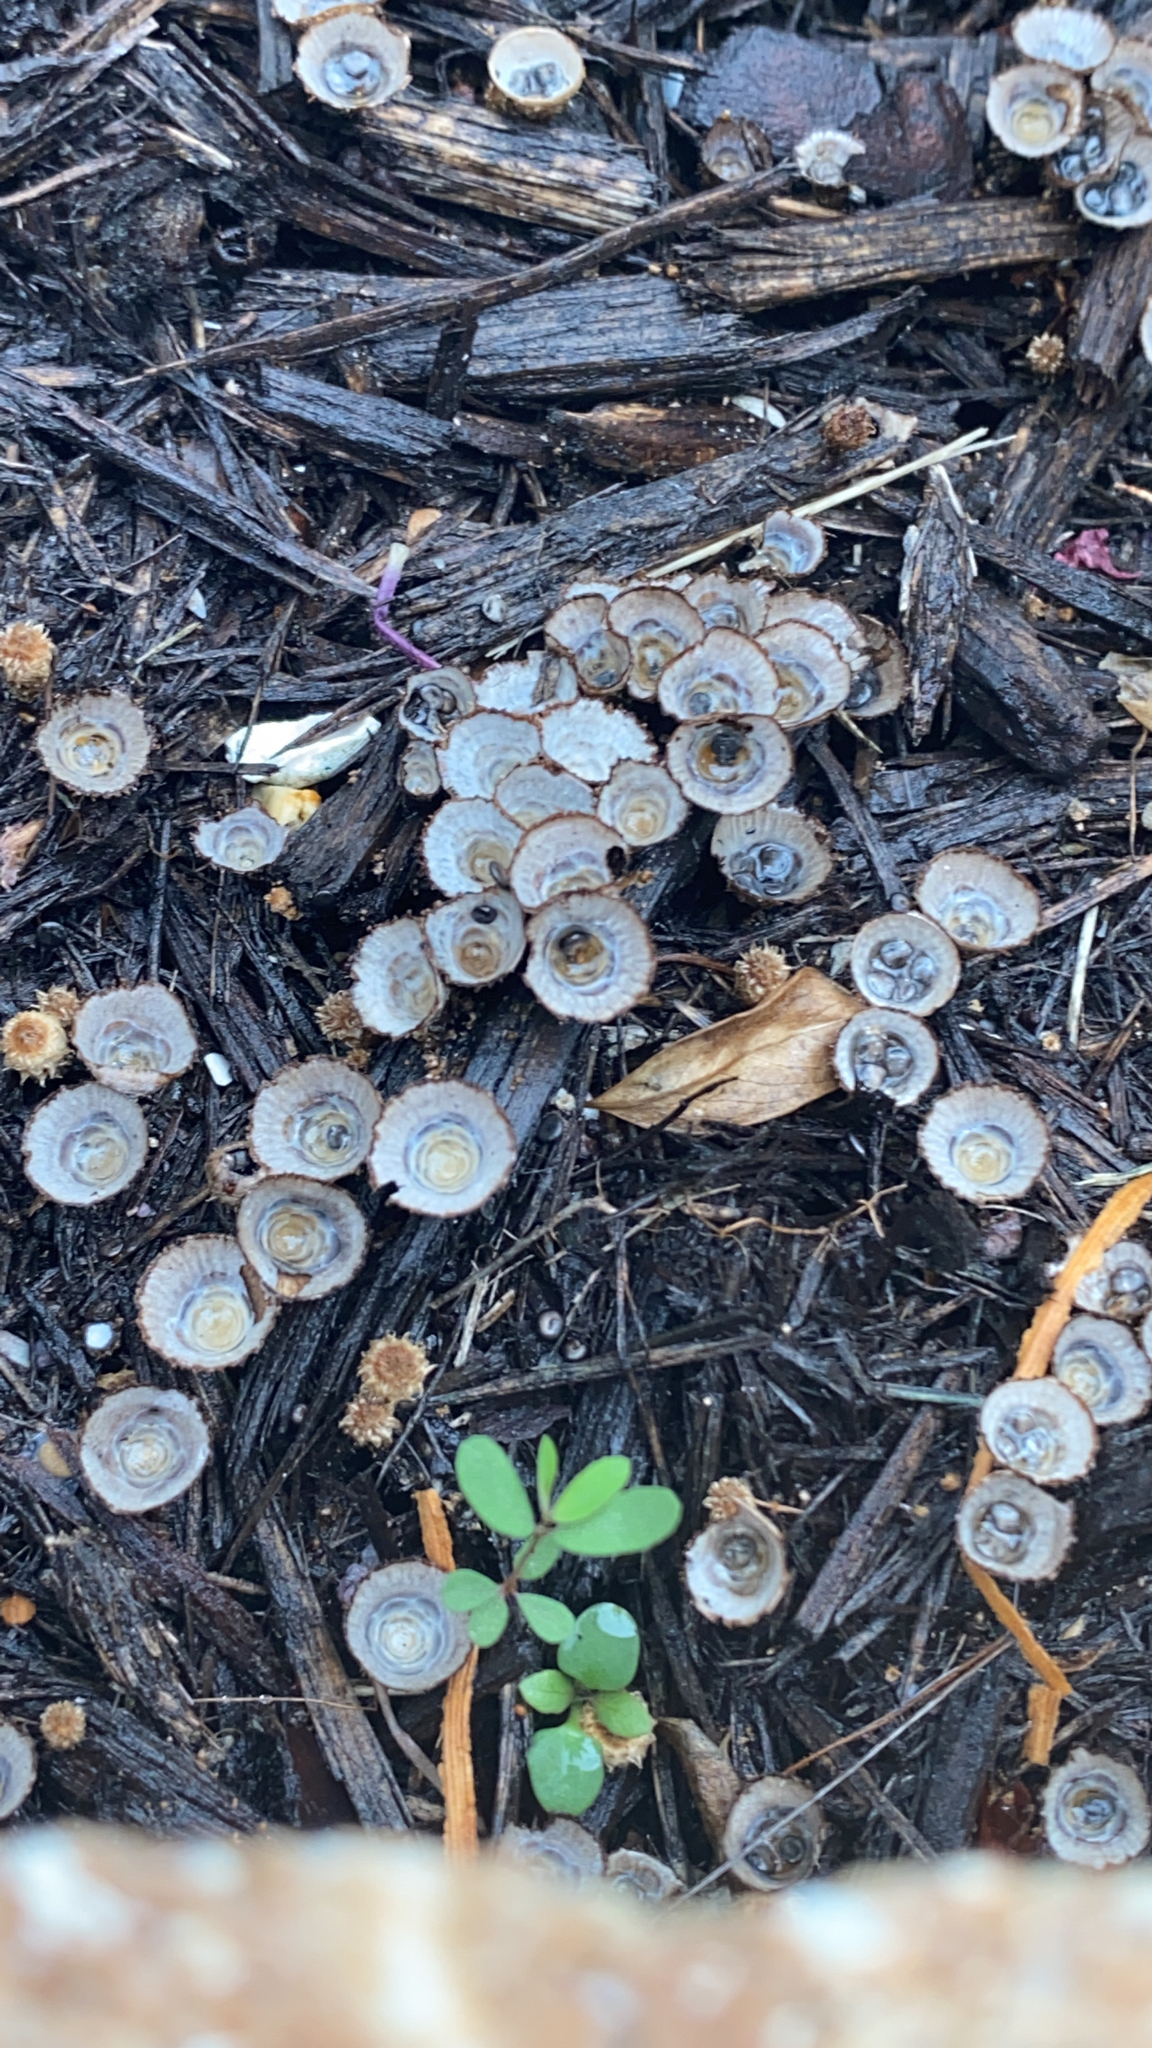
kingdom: Fungi
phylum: Basidiomycota
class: Agaricomycetes
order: Agaricales
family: Agaricaceae
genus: Cyathus
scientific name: Cyathus striatus
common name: Fluted bird's nest
